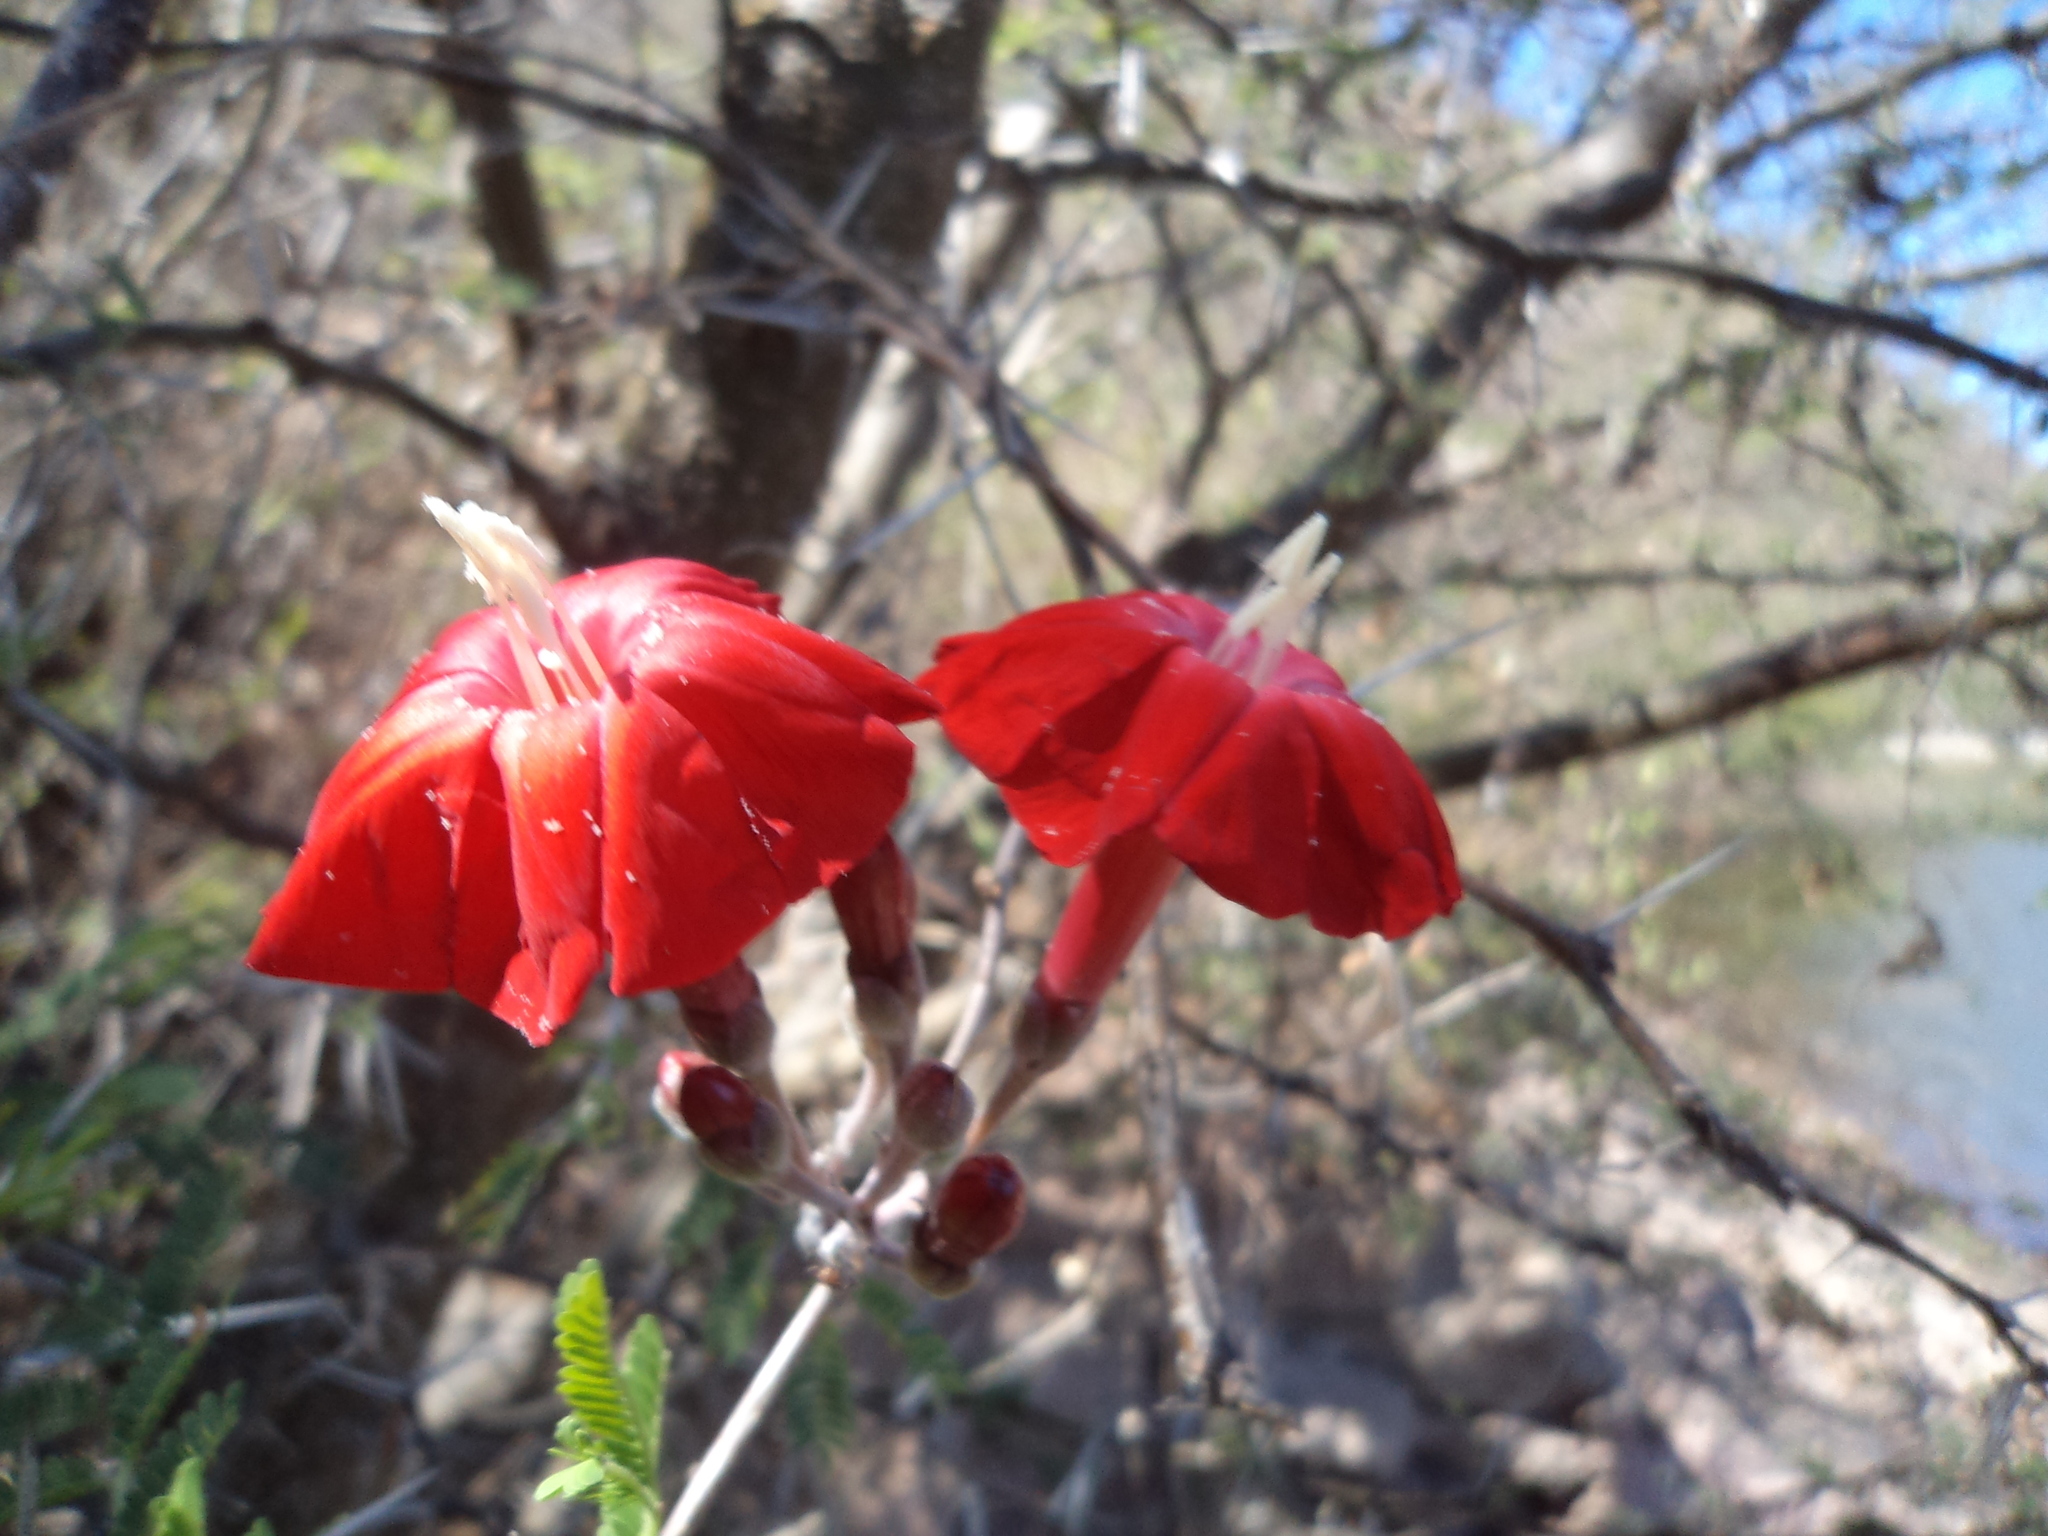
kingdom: Plantae
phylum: Tracheophyta
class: Magnoliopsida
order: Solanales
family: Convolvulaceae
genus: Ipomoea
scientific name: Ipomoea conzattii
